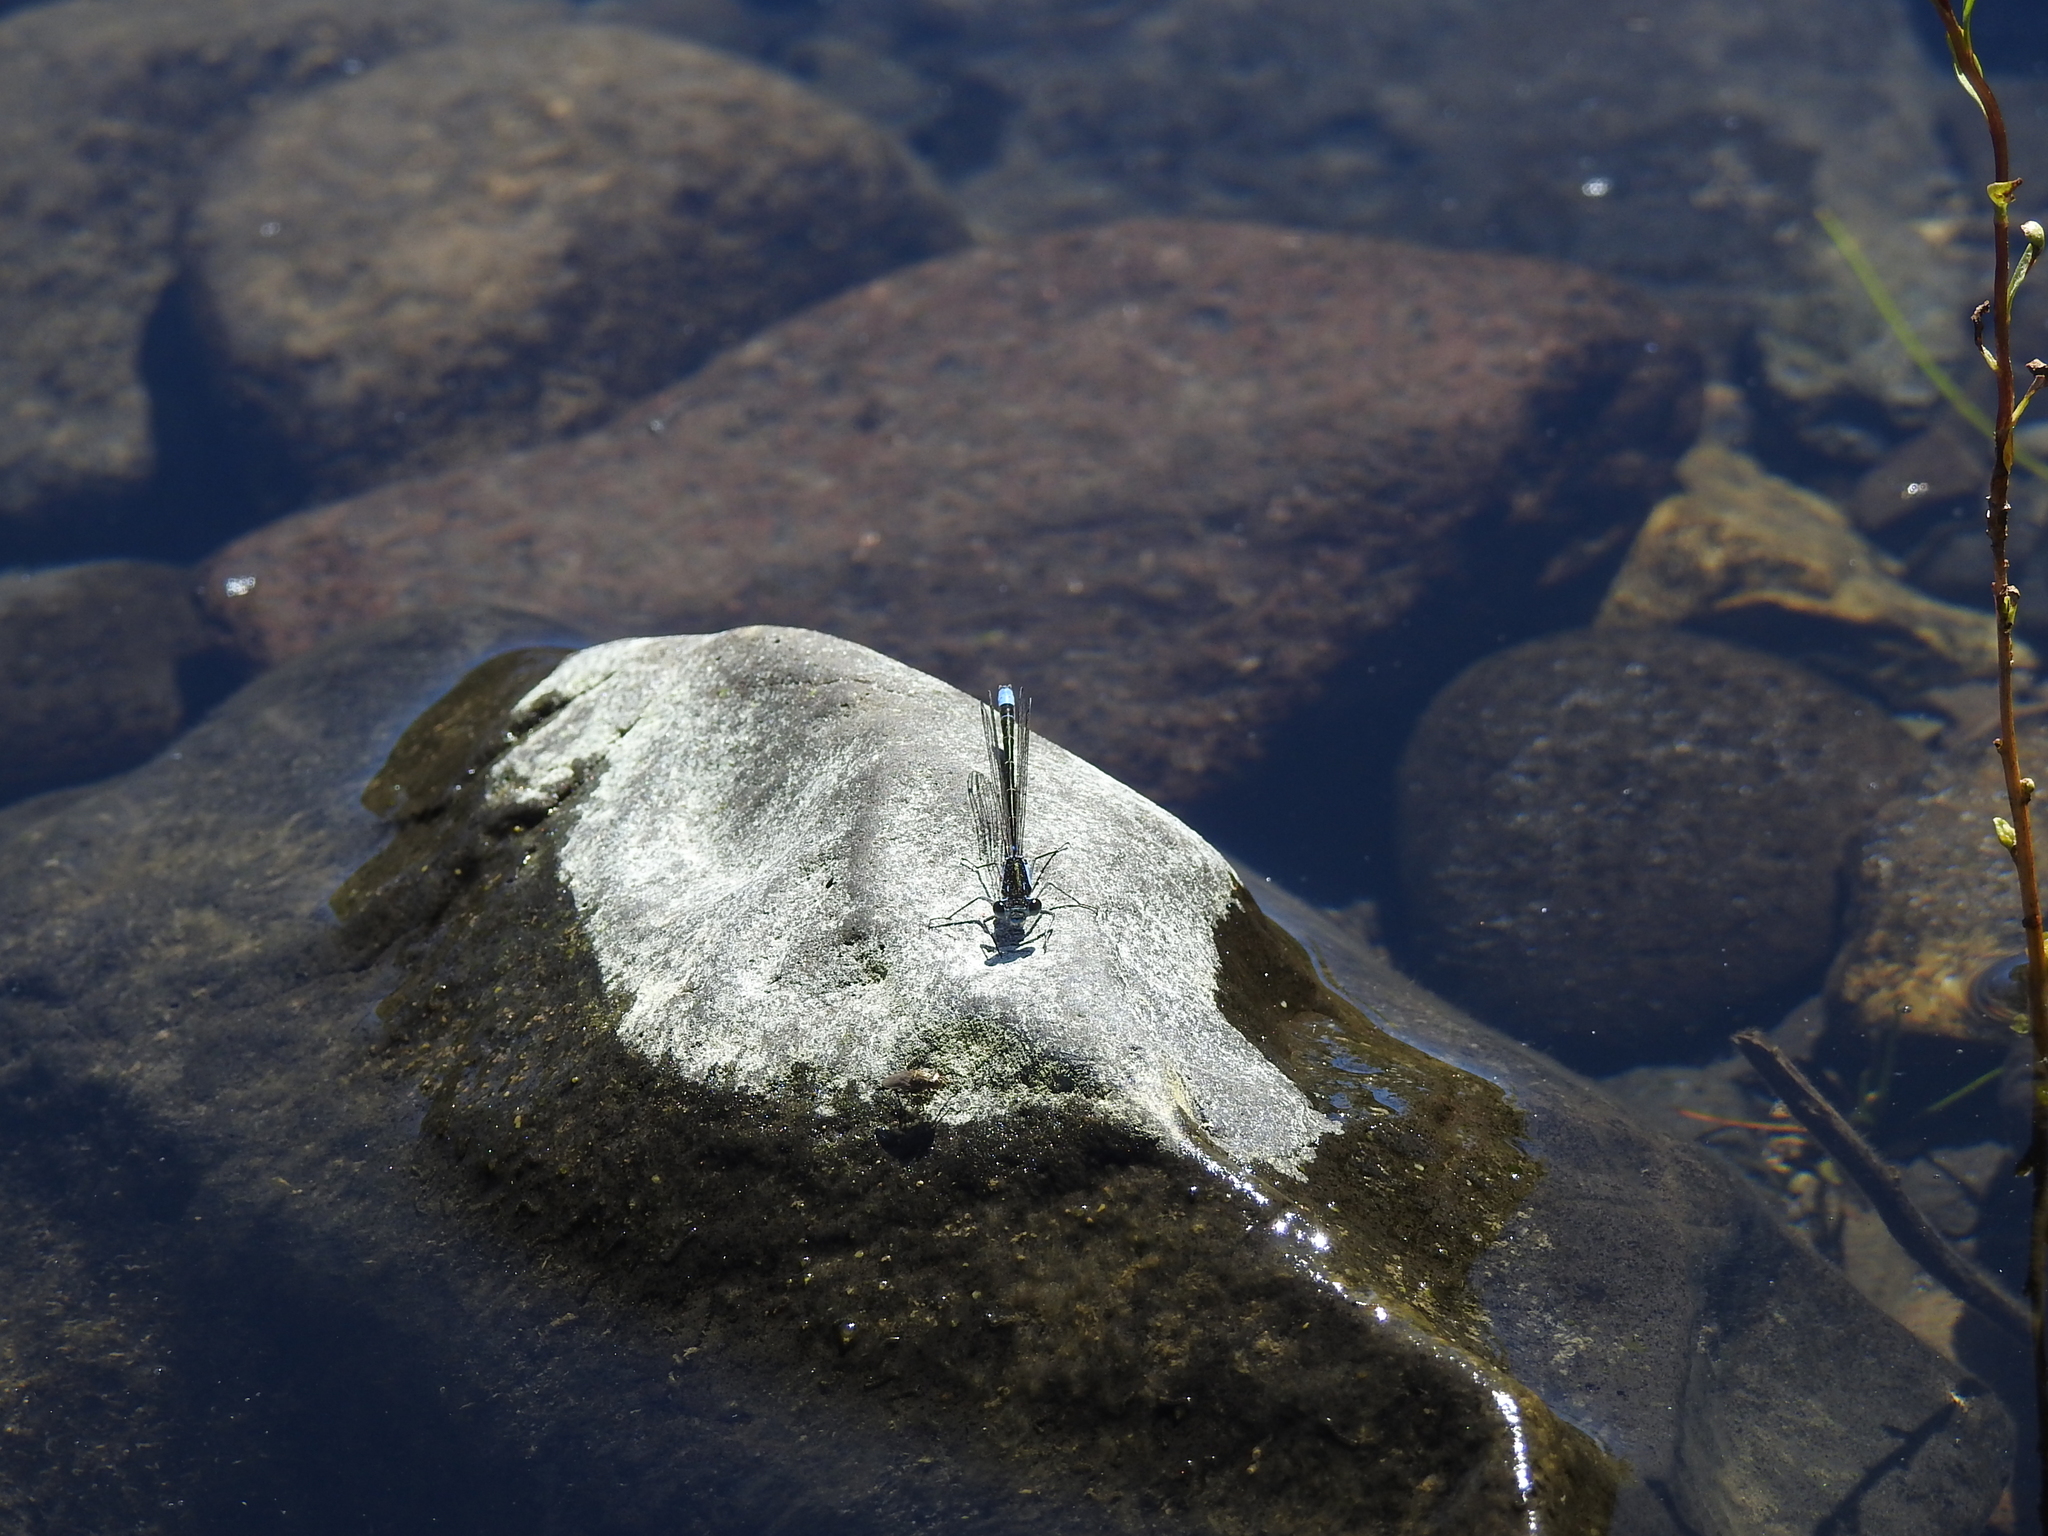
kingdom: Animalia
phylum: Arthropoda
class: Insecta
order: Odonata
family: Coenagrionidae
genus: Cyanallagma
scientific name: Cyanallagma interruptum
